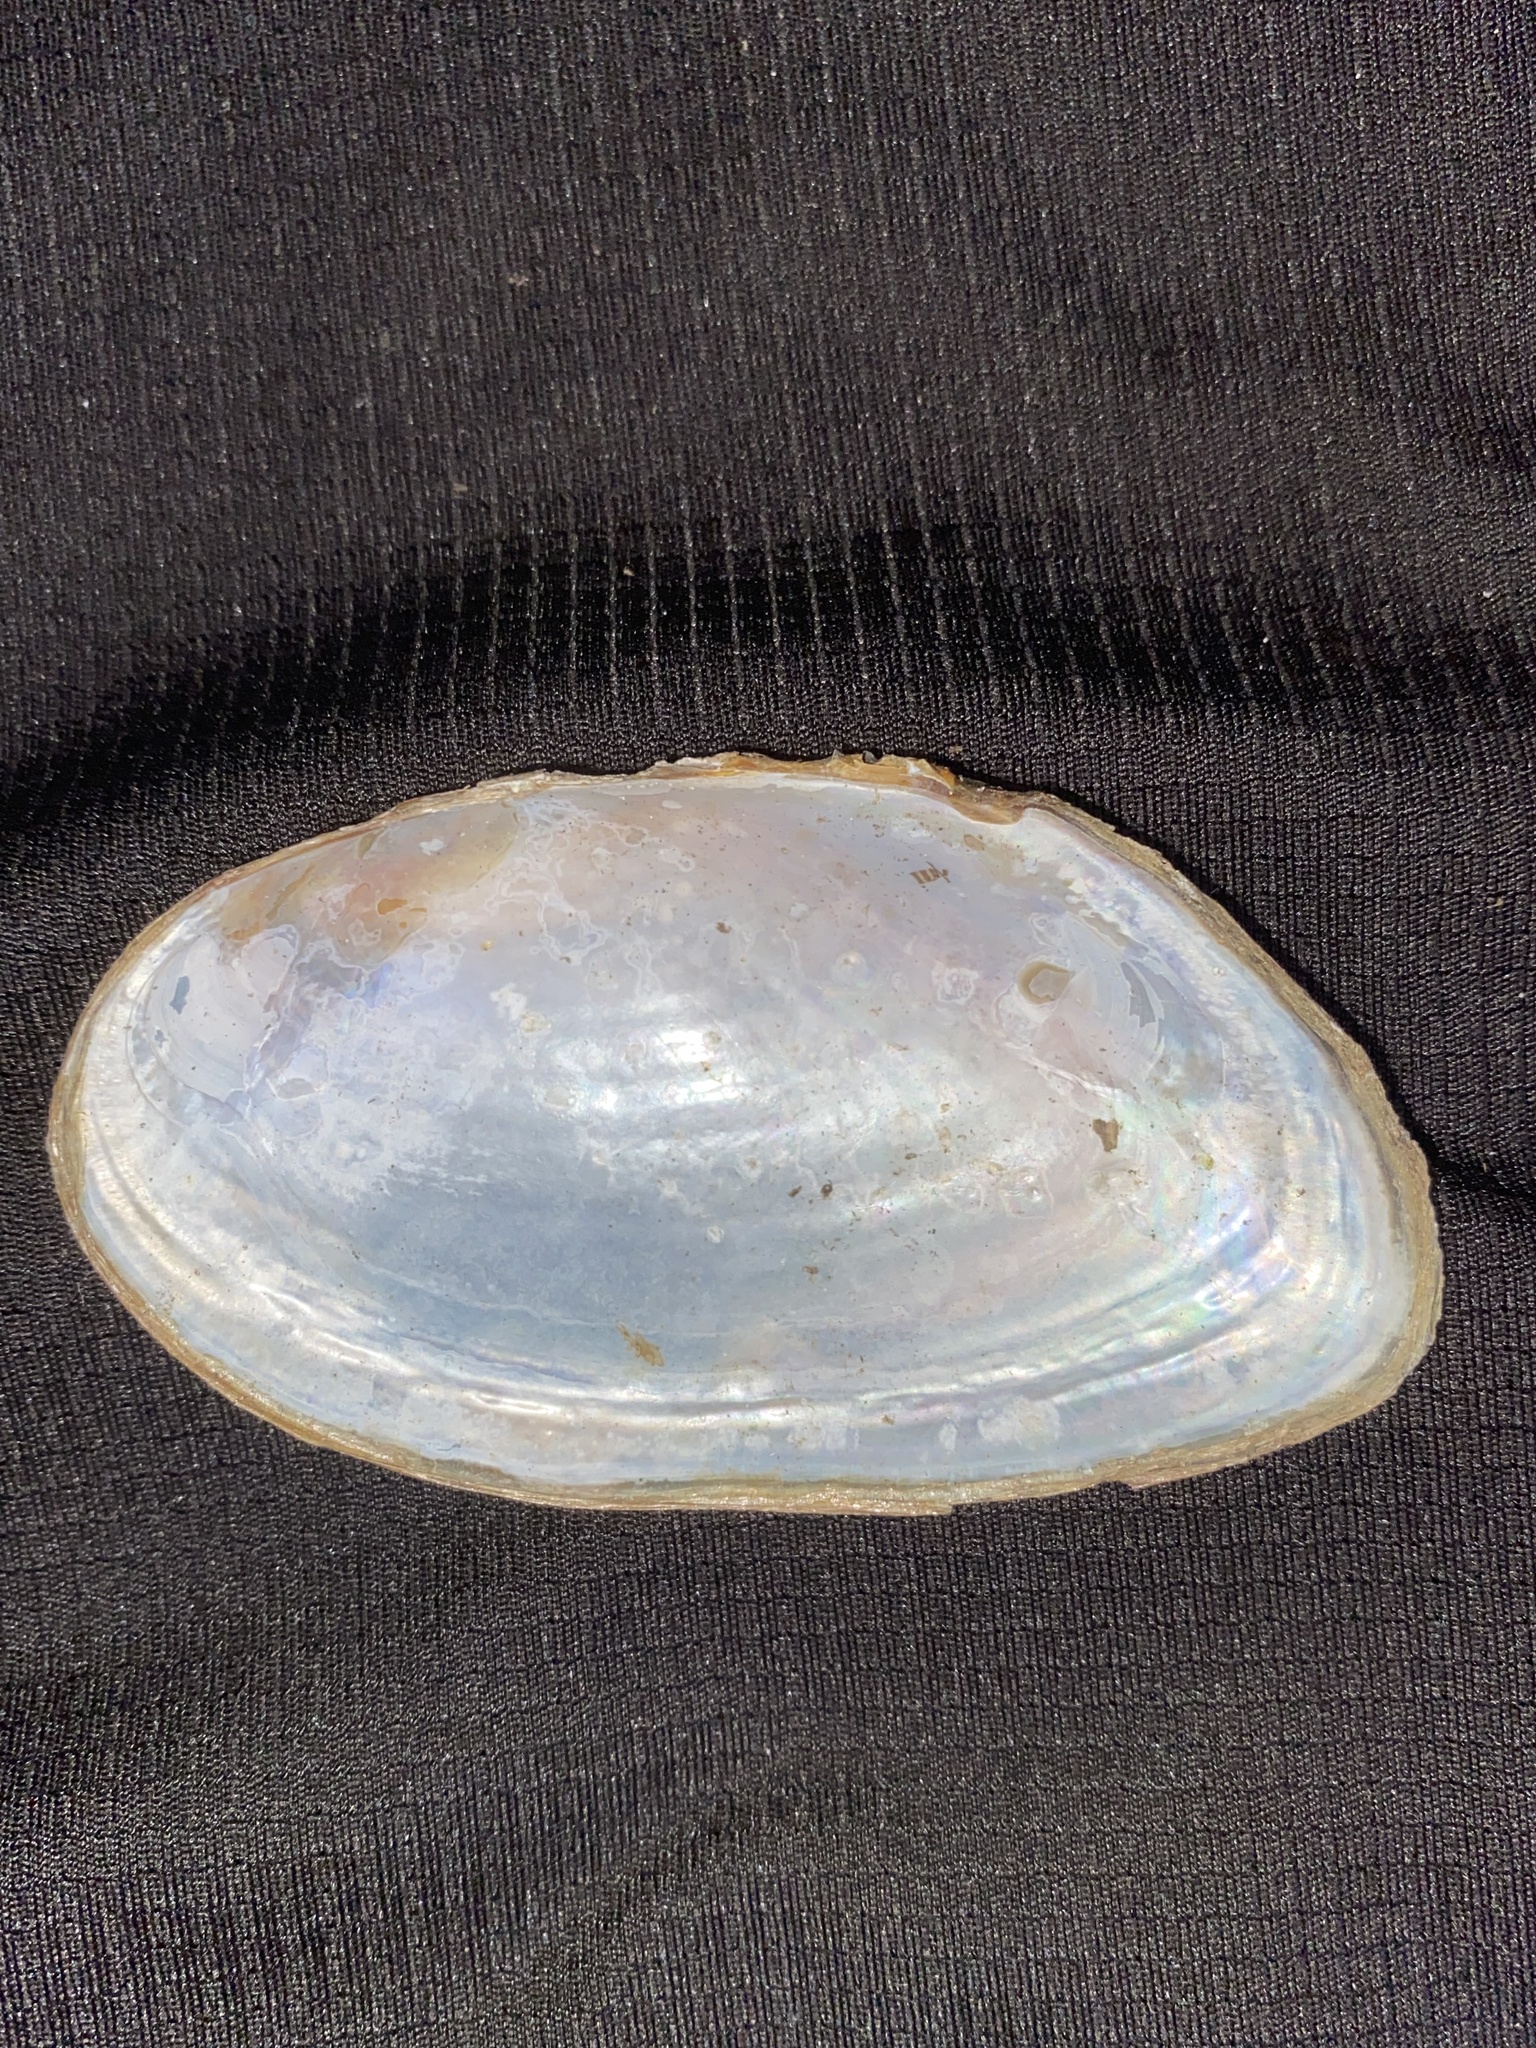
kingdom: Animalia
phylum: Mollusca
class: Bivalvia
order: Unionida
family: Unionidae
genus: Utterbackiana
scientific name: Utterbackiana couperiana
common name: Barrel floater
